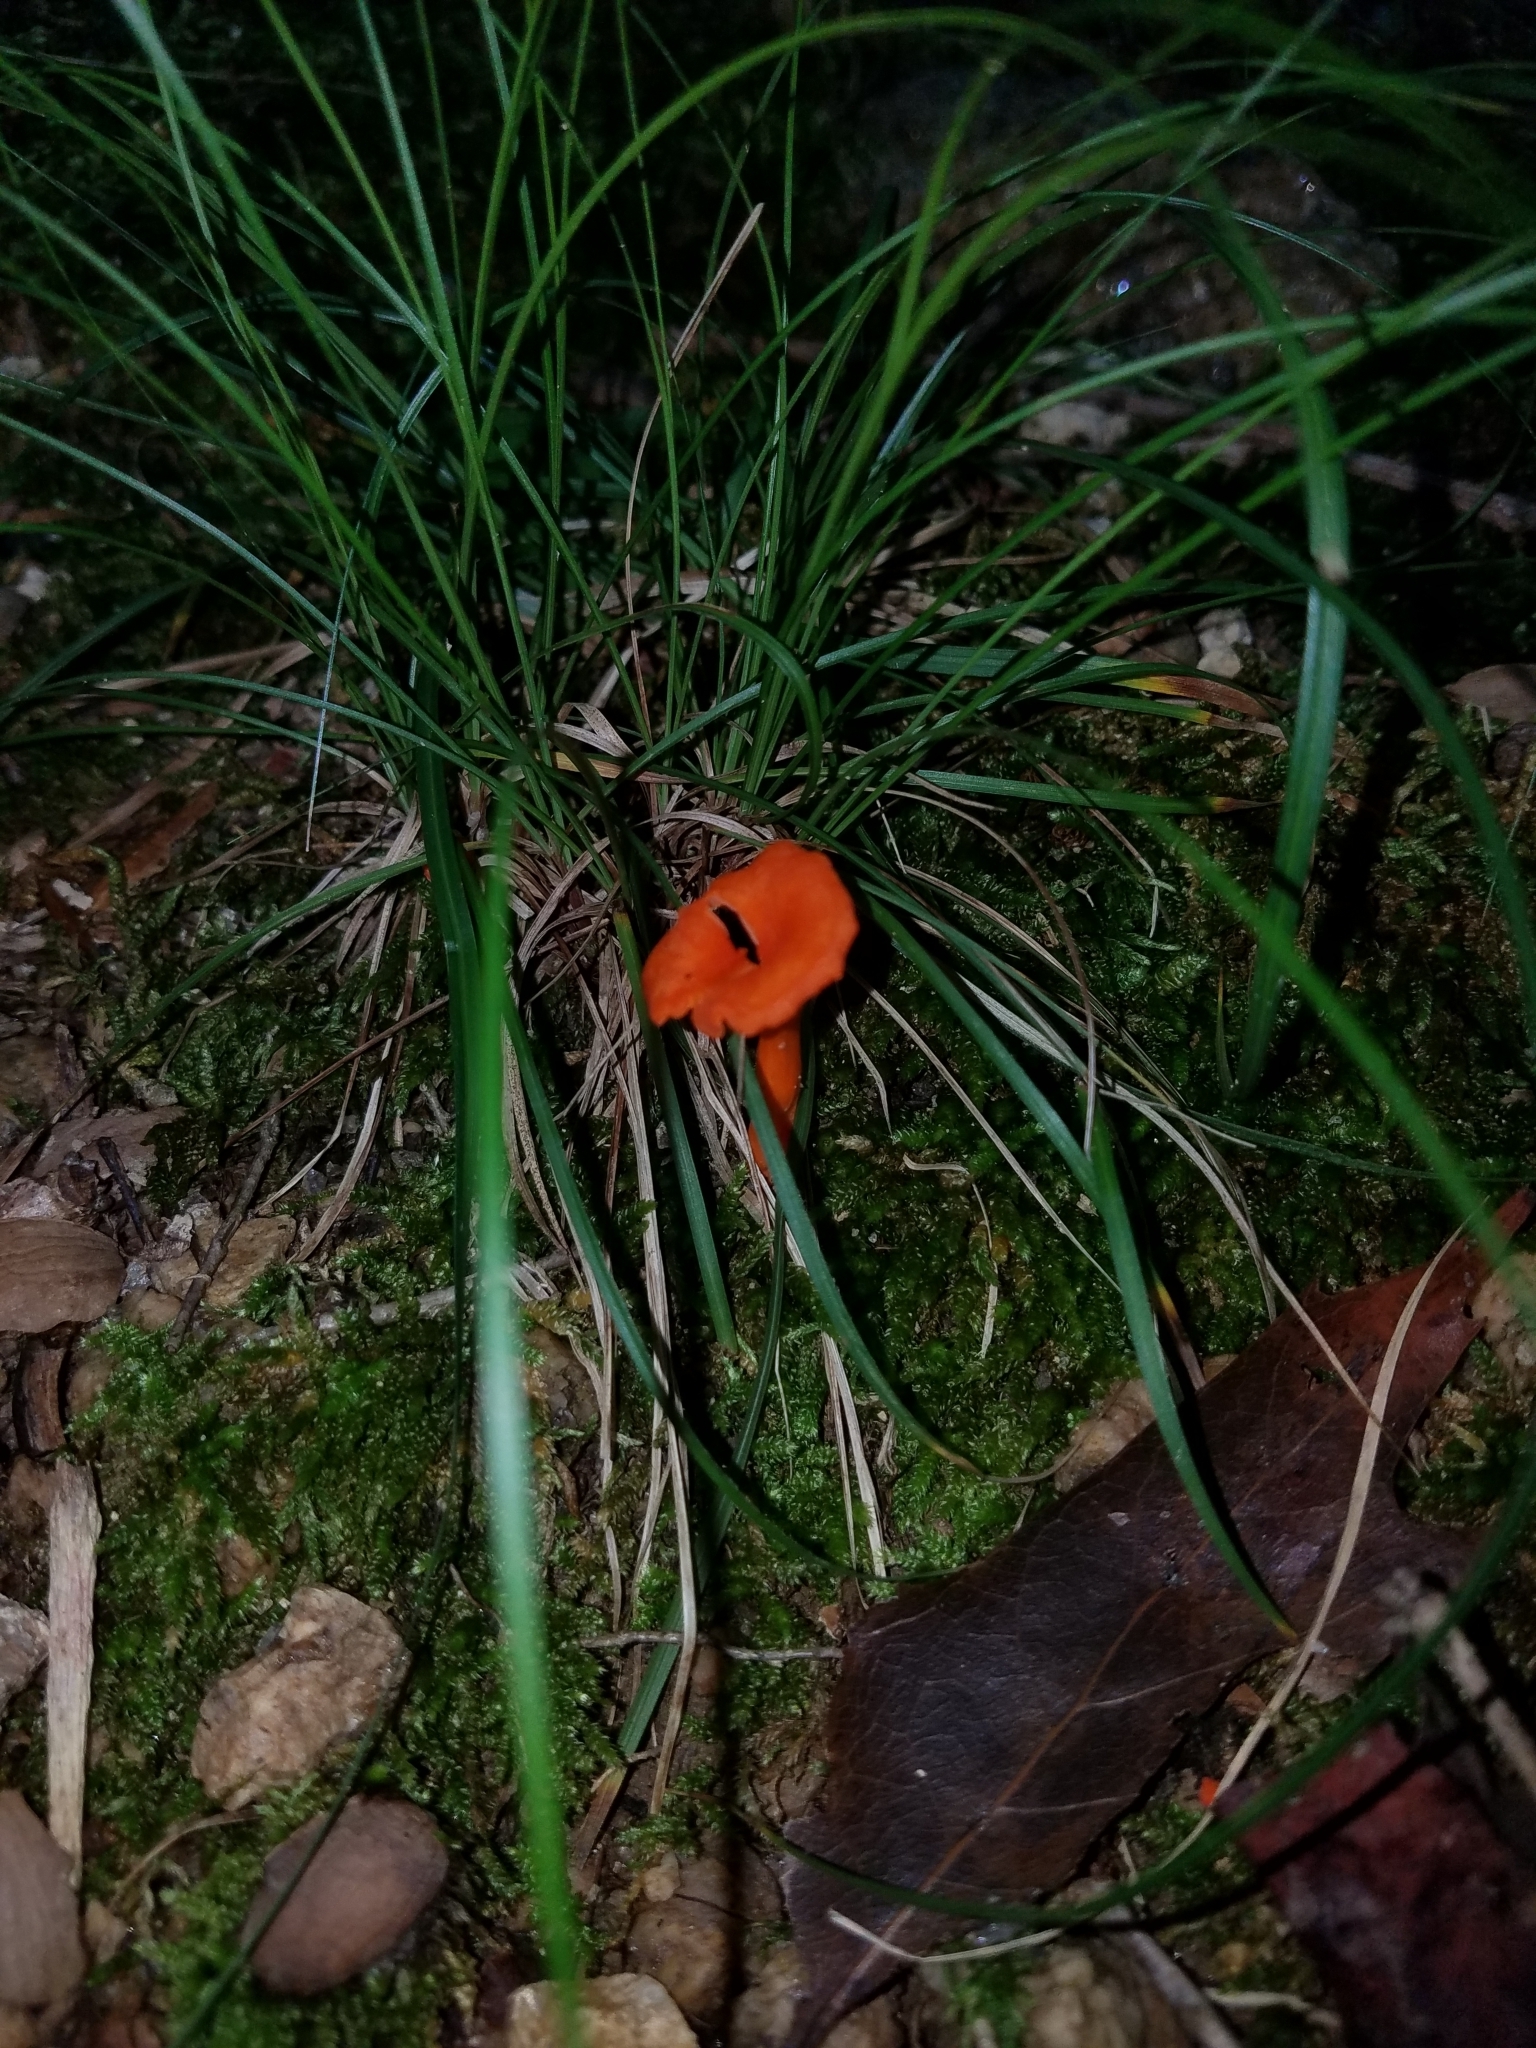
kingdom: Fungi
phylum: Basidiomycota
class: Agaricomycetes
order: Cantharellales
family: Hydnaceae
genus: Cantharellus
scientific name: Cantharellus cinnabarinus
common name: Cinnabar chanterelle
